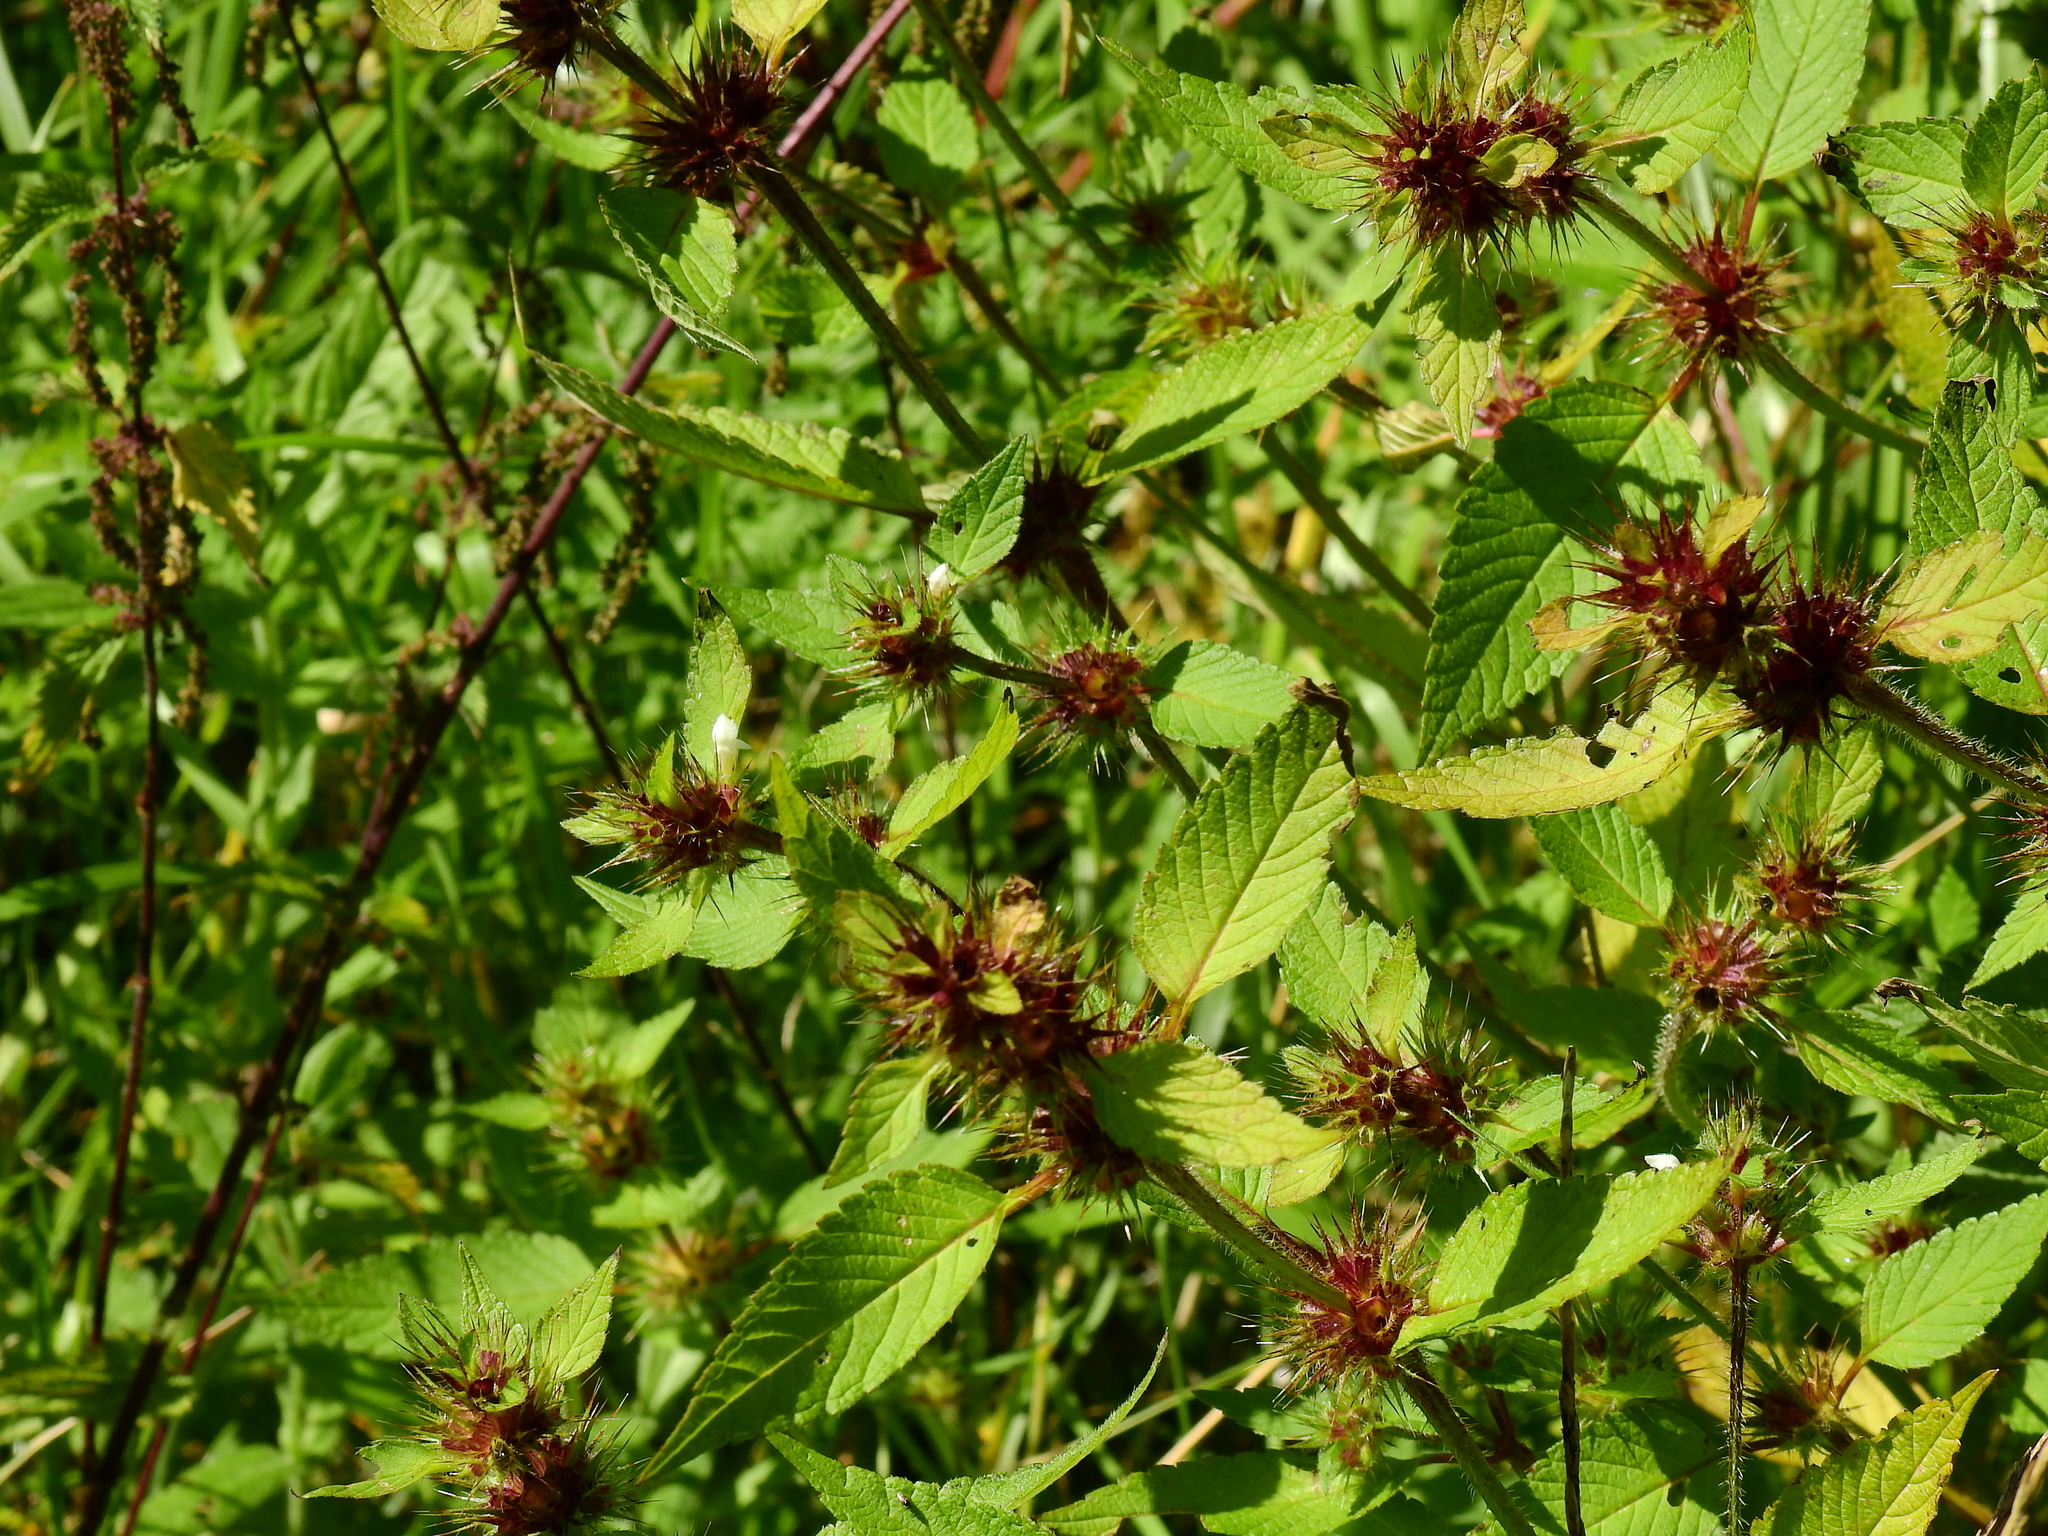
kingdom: Plantae
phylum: Tracheophyta
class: Magnoliopsida
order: Lamiales
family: Lamiaceae
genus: Galeopsis
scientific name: Galeopsis tetrahit
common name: Common hemp-nettle
